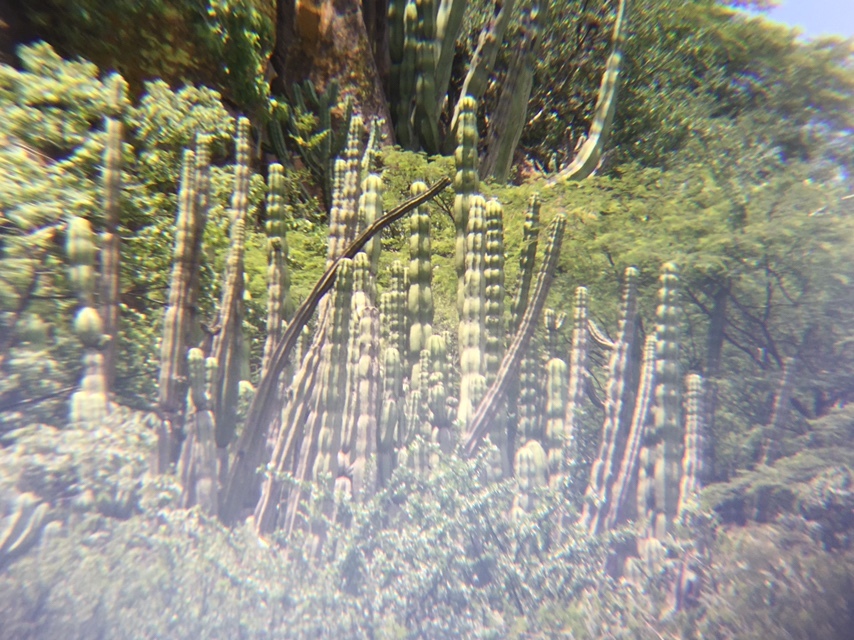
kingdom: Plantae
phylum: Tracheophyta
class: Magnoliopsida
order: Caryophyllales
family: Cactaceae
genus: Stenocereus
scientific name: Stenocereus queretaroensis
